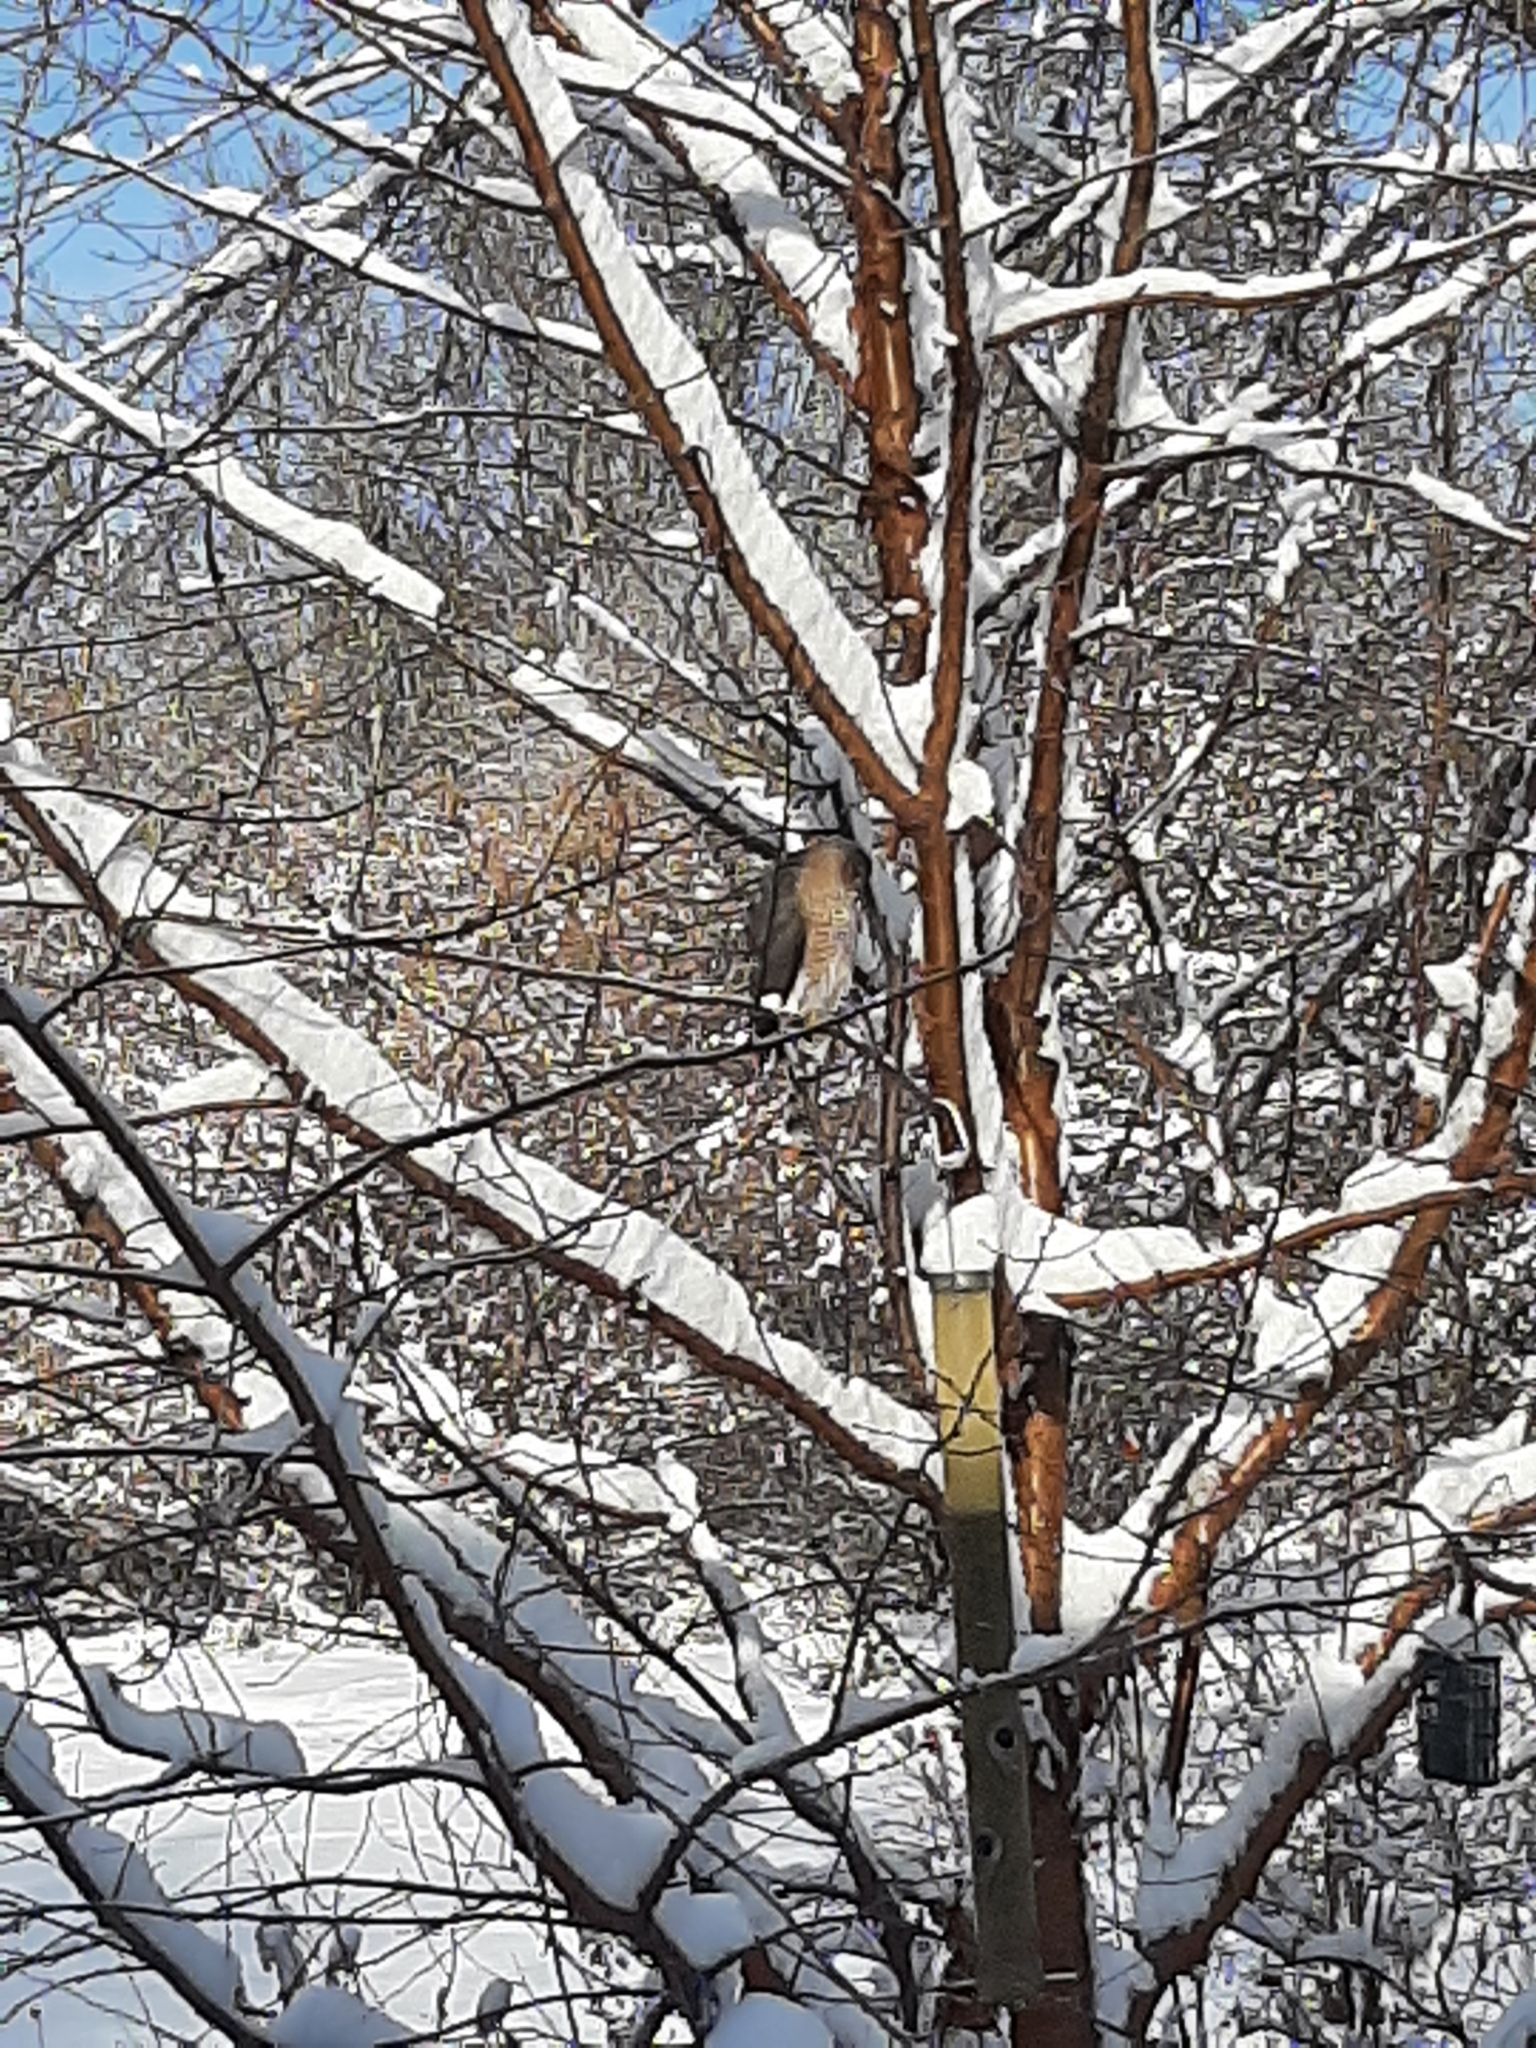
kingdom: Animalia
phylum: Chordata
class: Aves
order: Accipitriformes
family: Accipitridae
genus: Accipiter
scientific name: Accipiter striatus
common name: Sharp-shinned hawk
